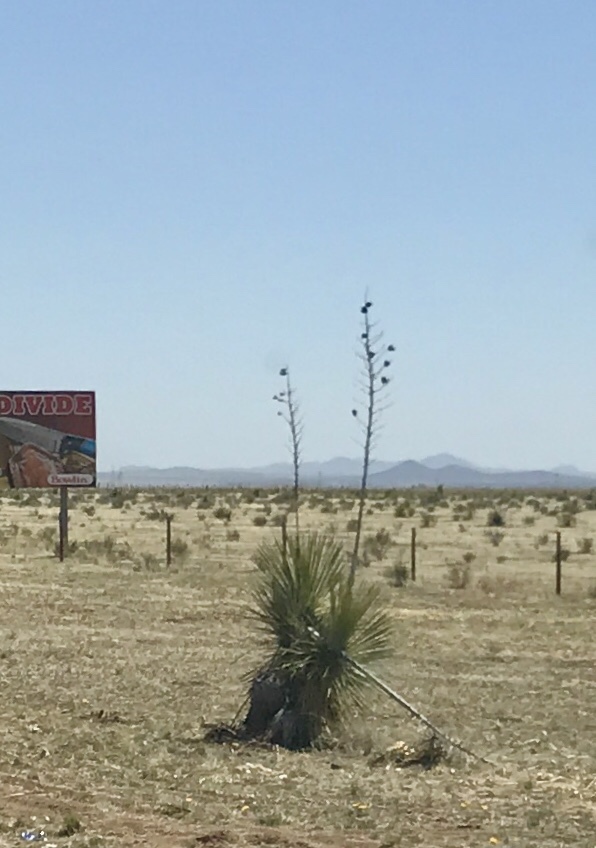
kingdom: Plantae
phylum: Tracheophyta
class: Liliopsida
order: Asparagales
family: Asparagaceae
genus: Yucca
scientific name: Yucca elata
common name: Palmella
